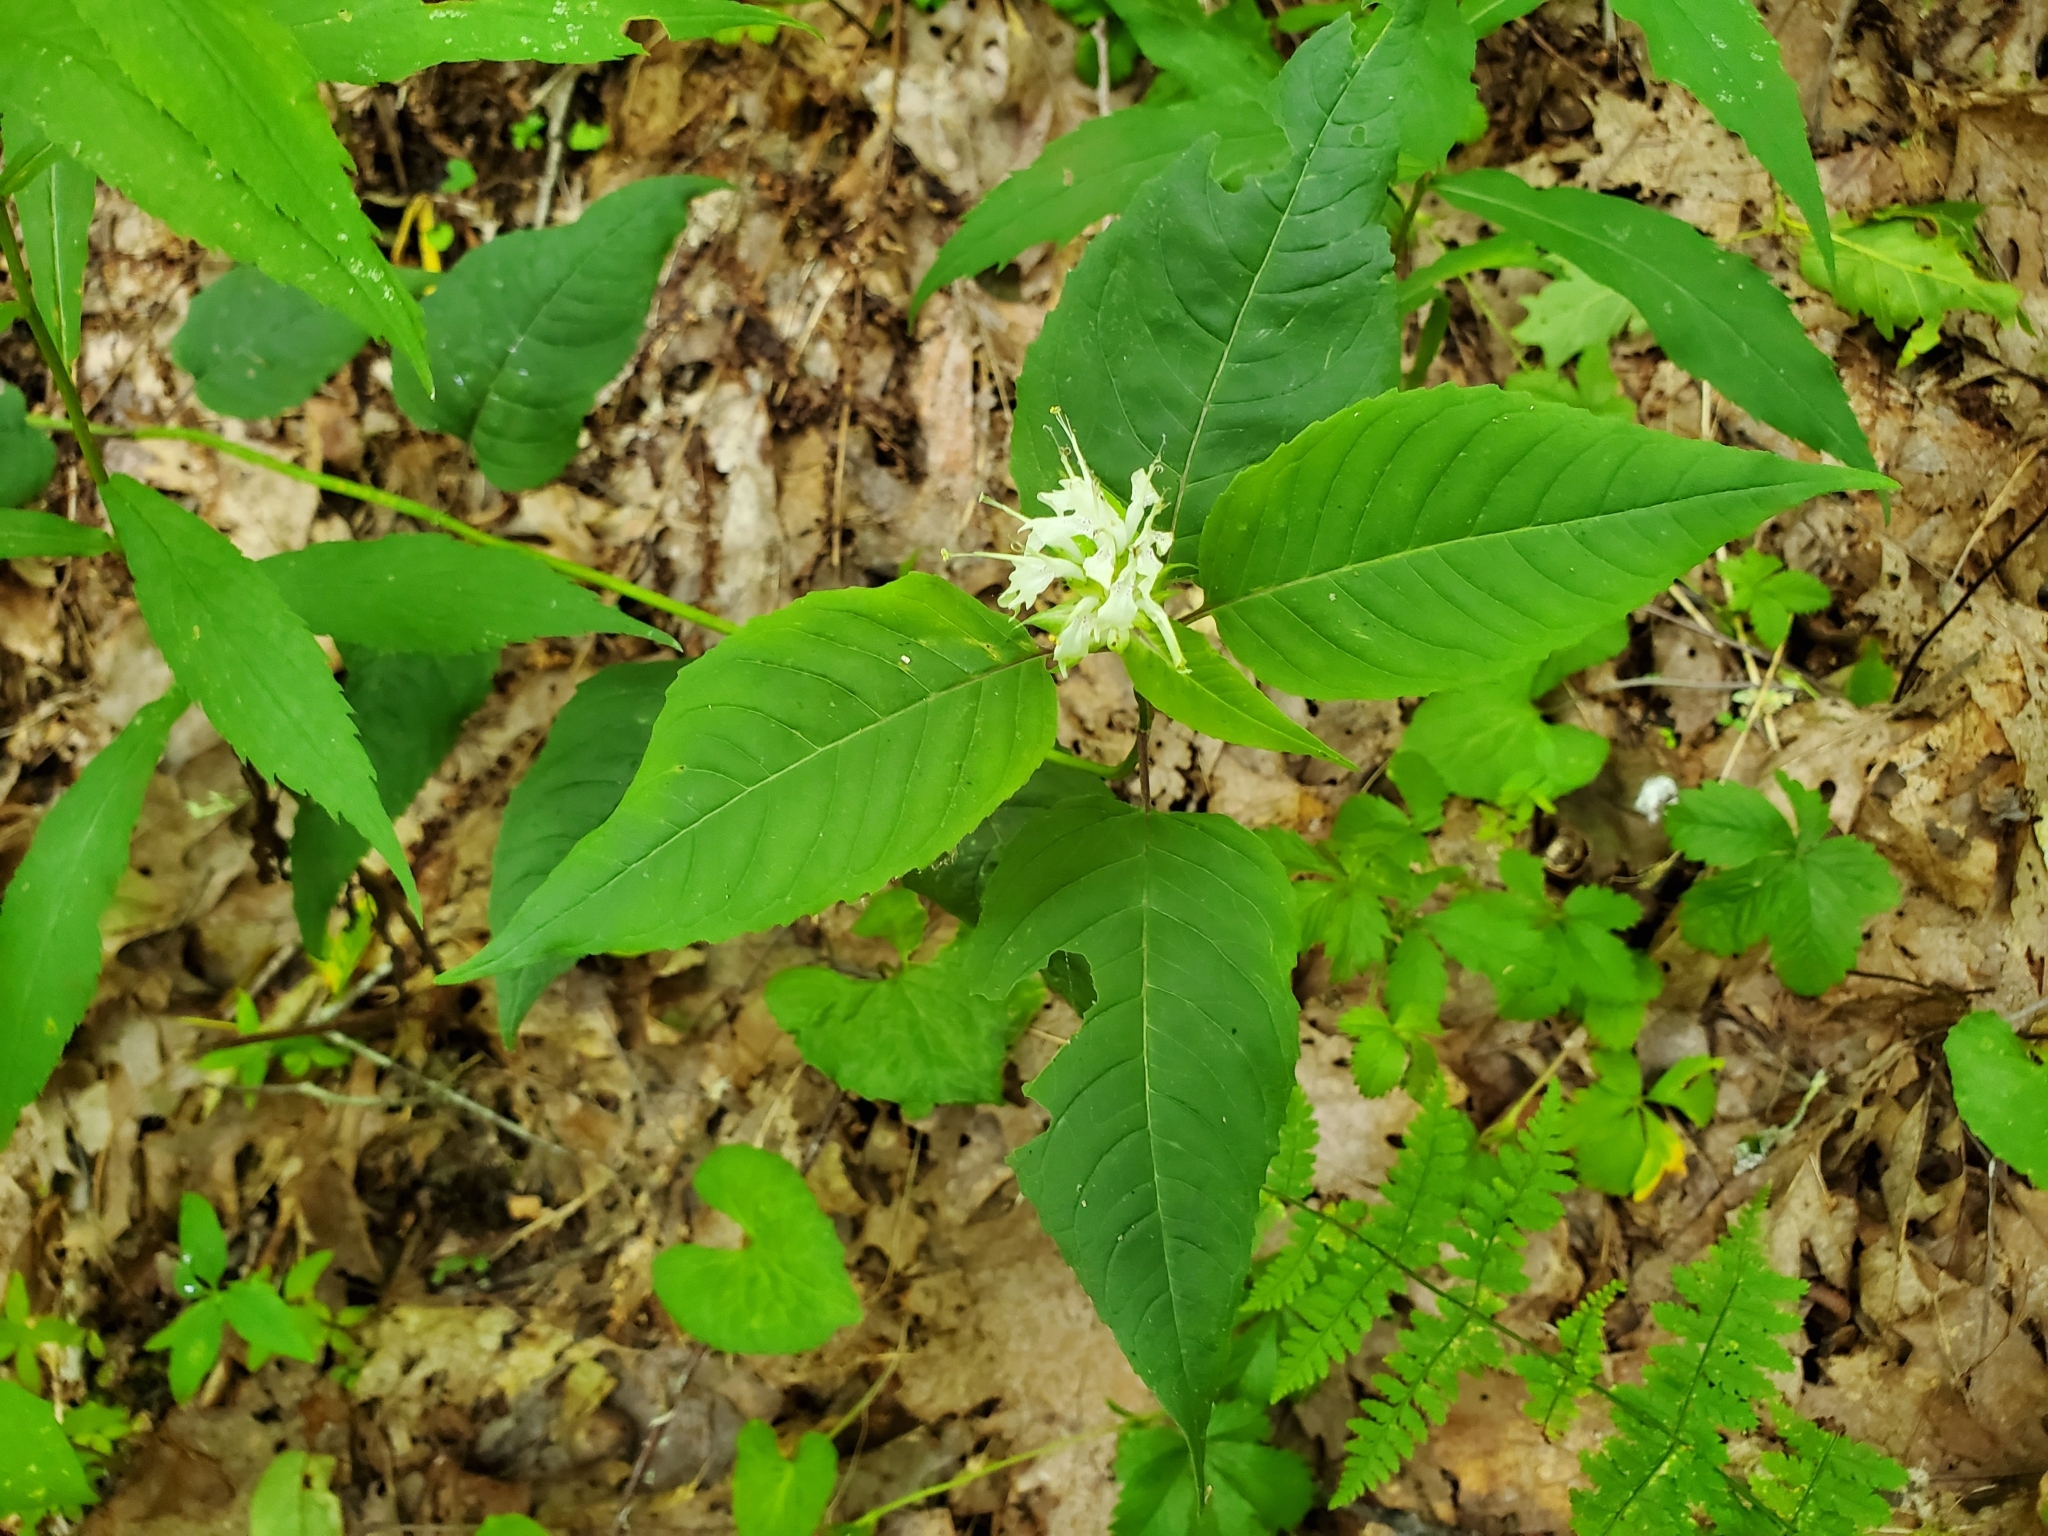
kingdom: Plantae
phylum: Tracheophyta
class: Magnoliopsida
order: Lamiales
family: Lamiaceae
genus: Monarda
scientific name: Monarda clinopodia
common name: Basil beebalm
